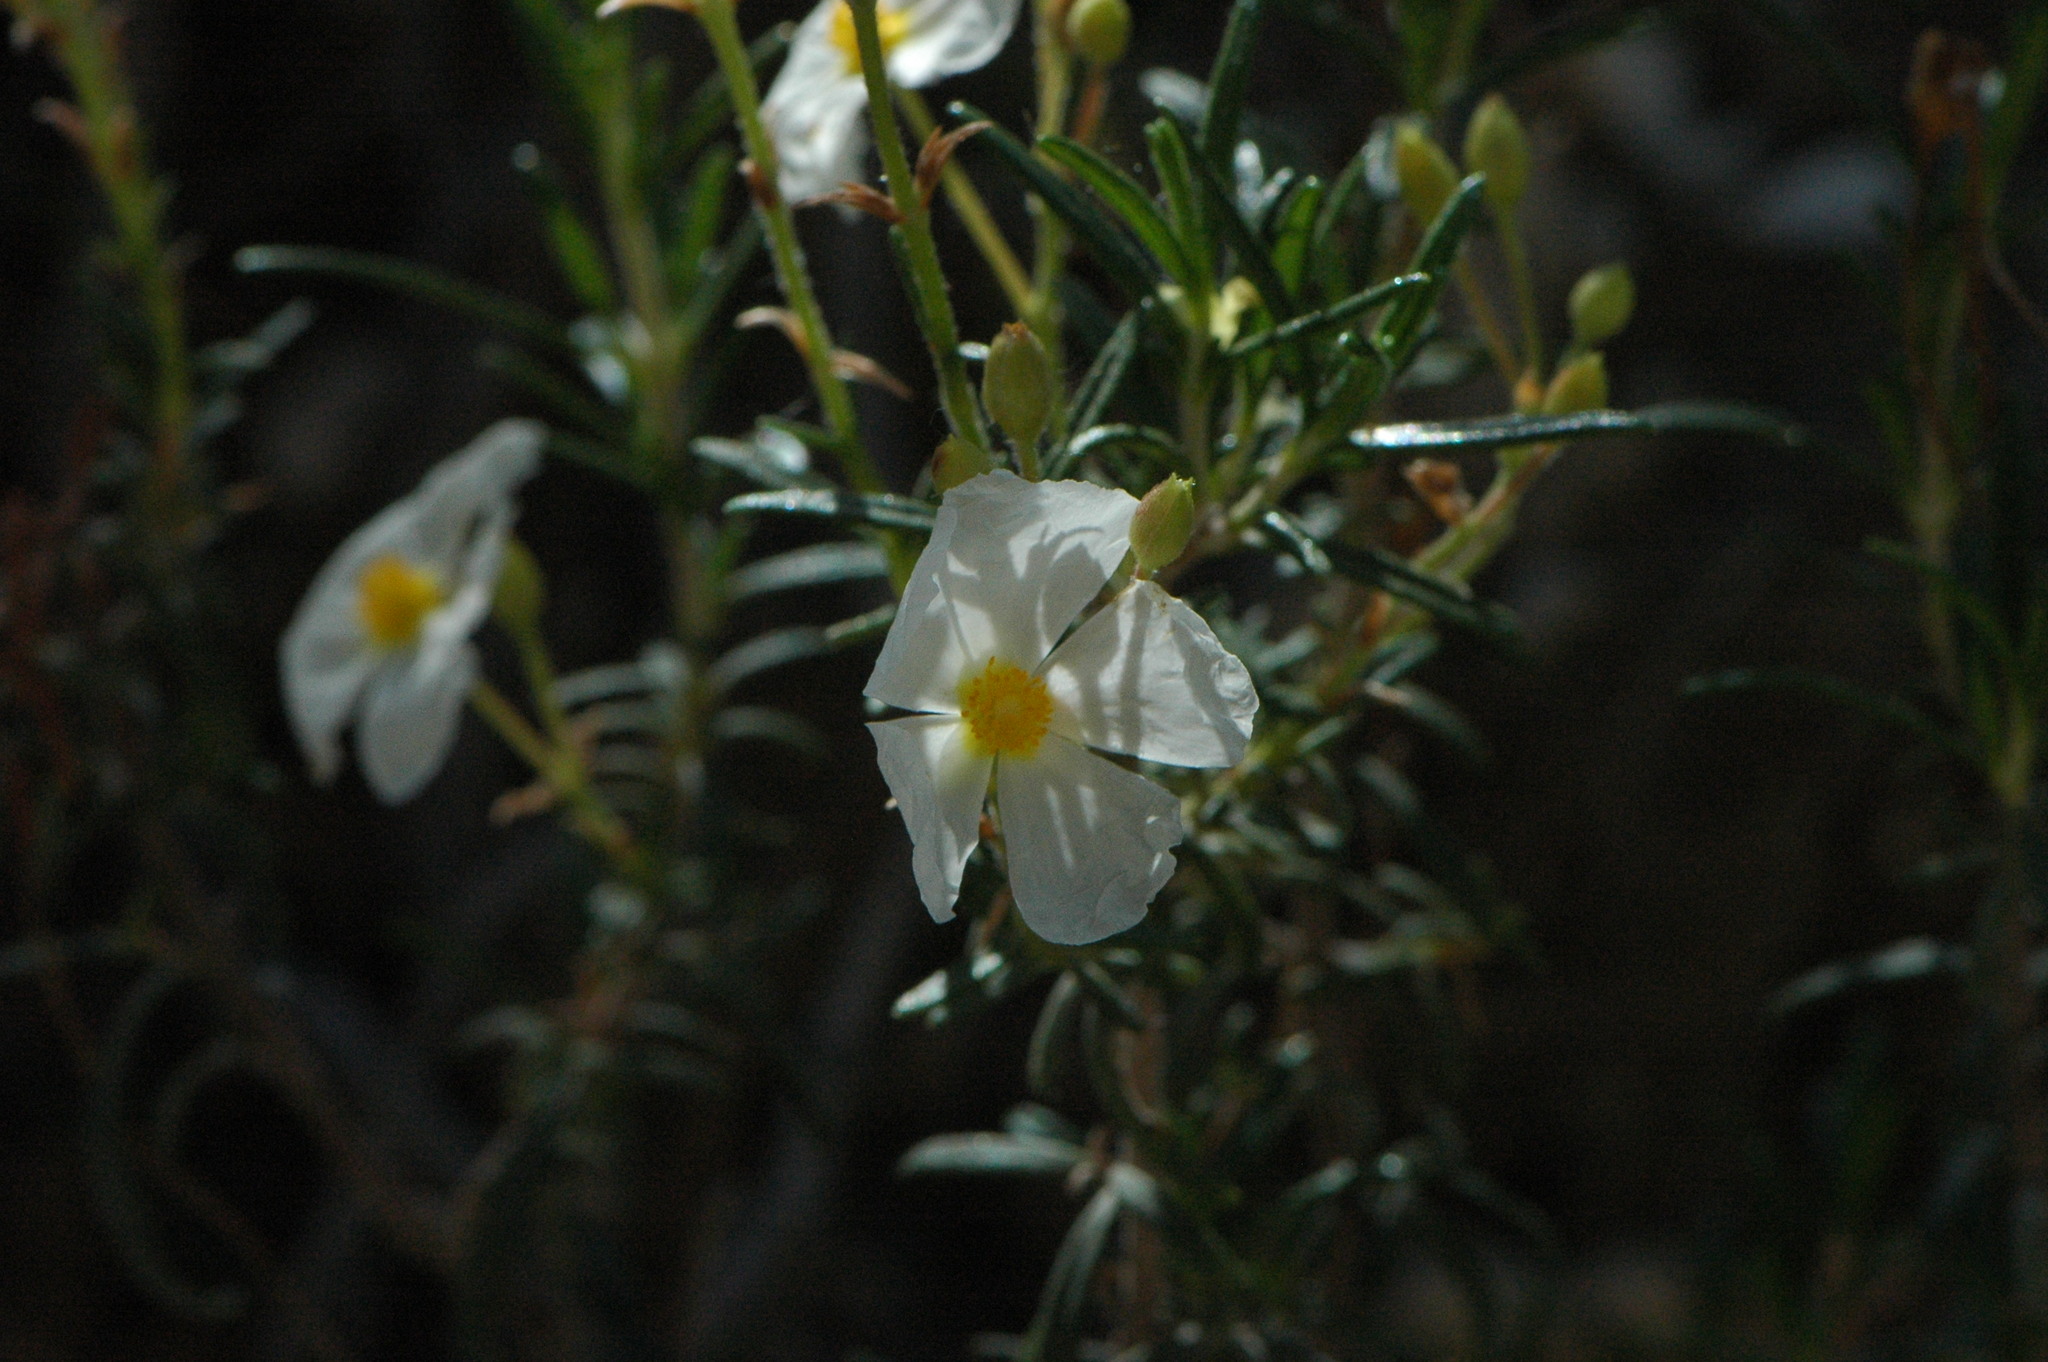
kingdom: Plantae
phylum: Tracheophyta
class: Magnoliopsida
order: Malvales
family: Cistaceae
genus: Cistus
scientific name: Cistus clusii
